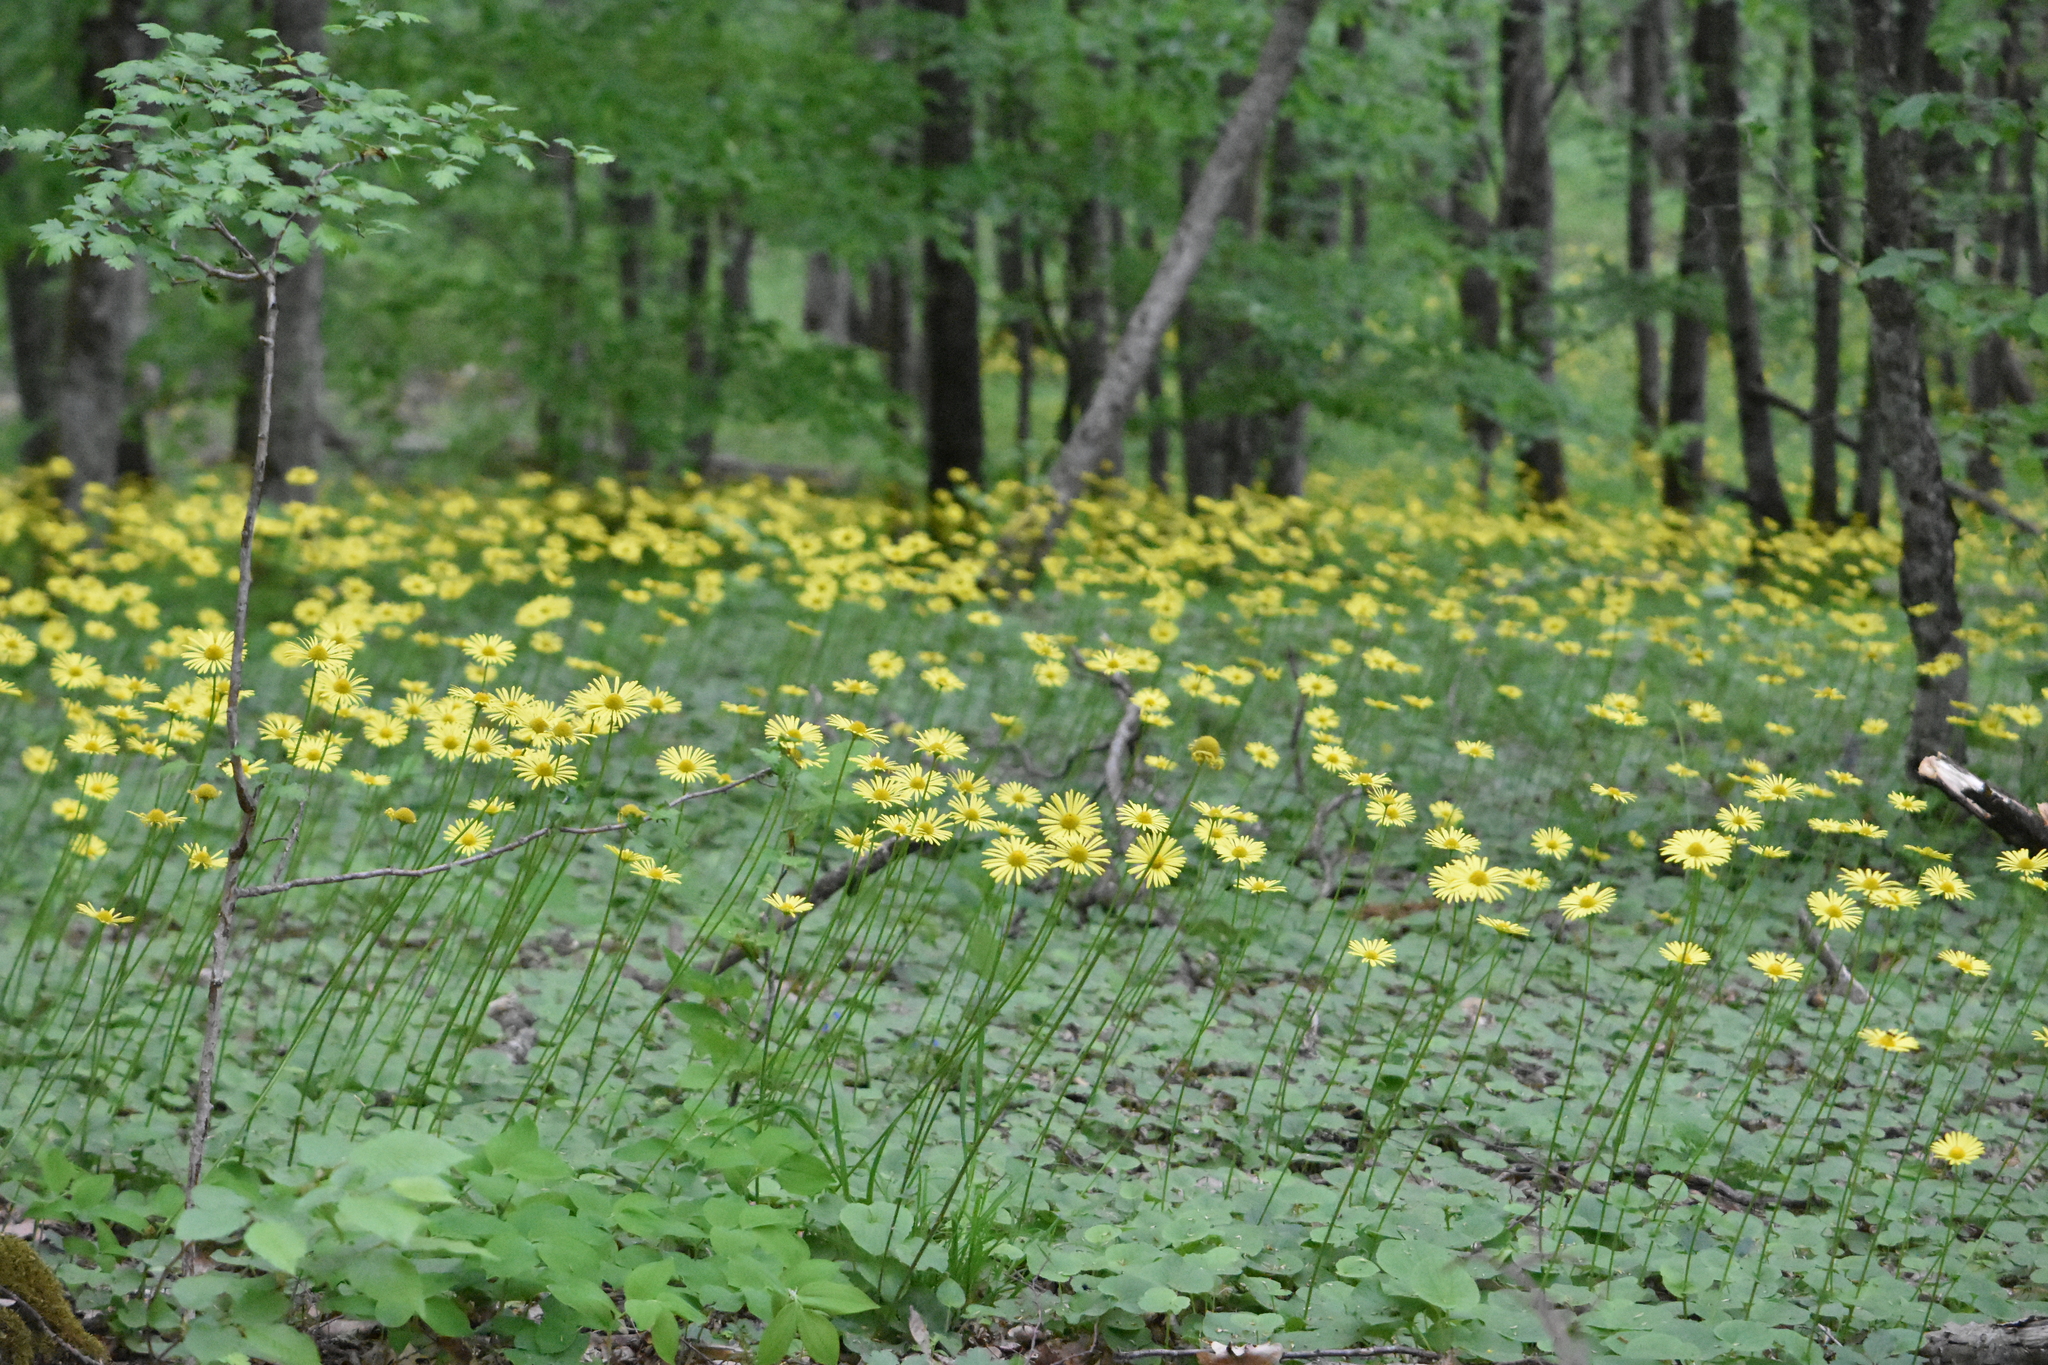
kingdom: Plantae
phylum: Tracheophyta
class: Magnoliopsida
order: Asterales
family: Asteraceae
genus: Doronicum
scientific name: Doronicum
